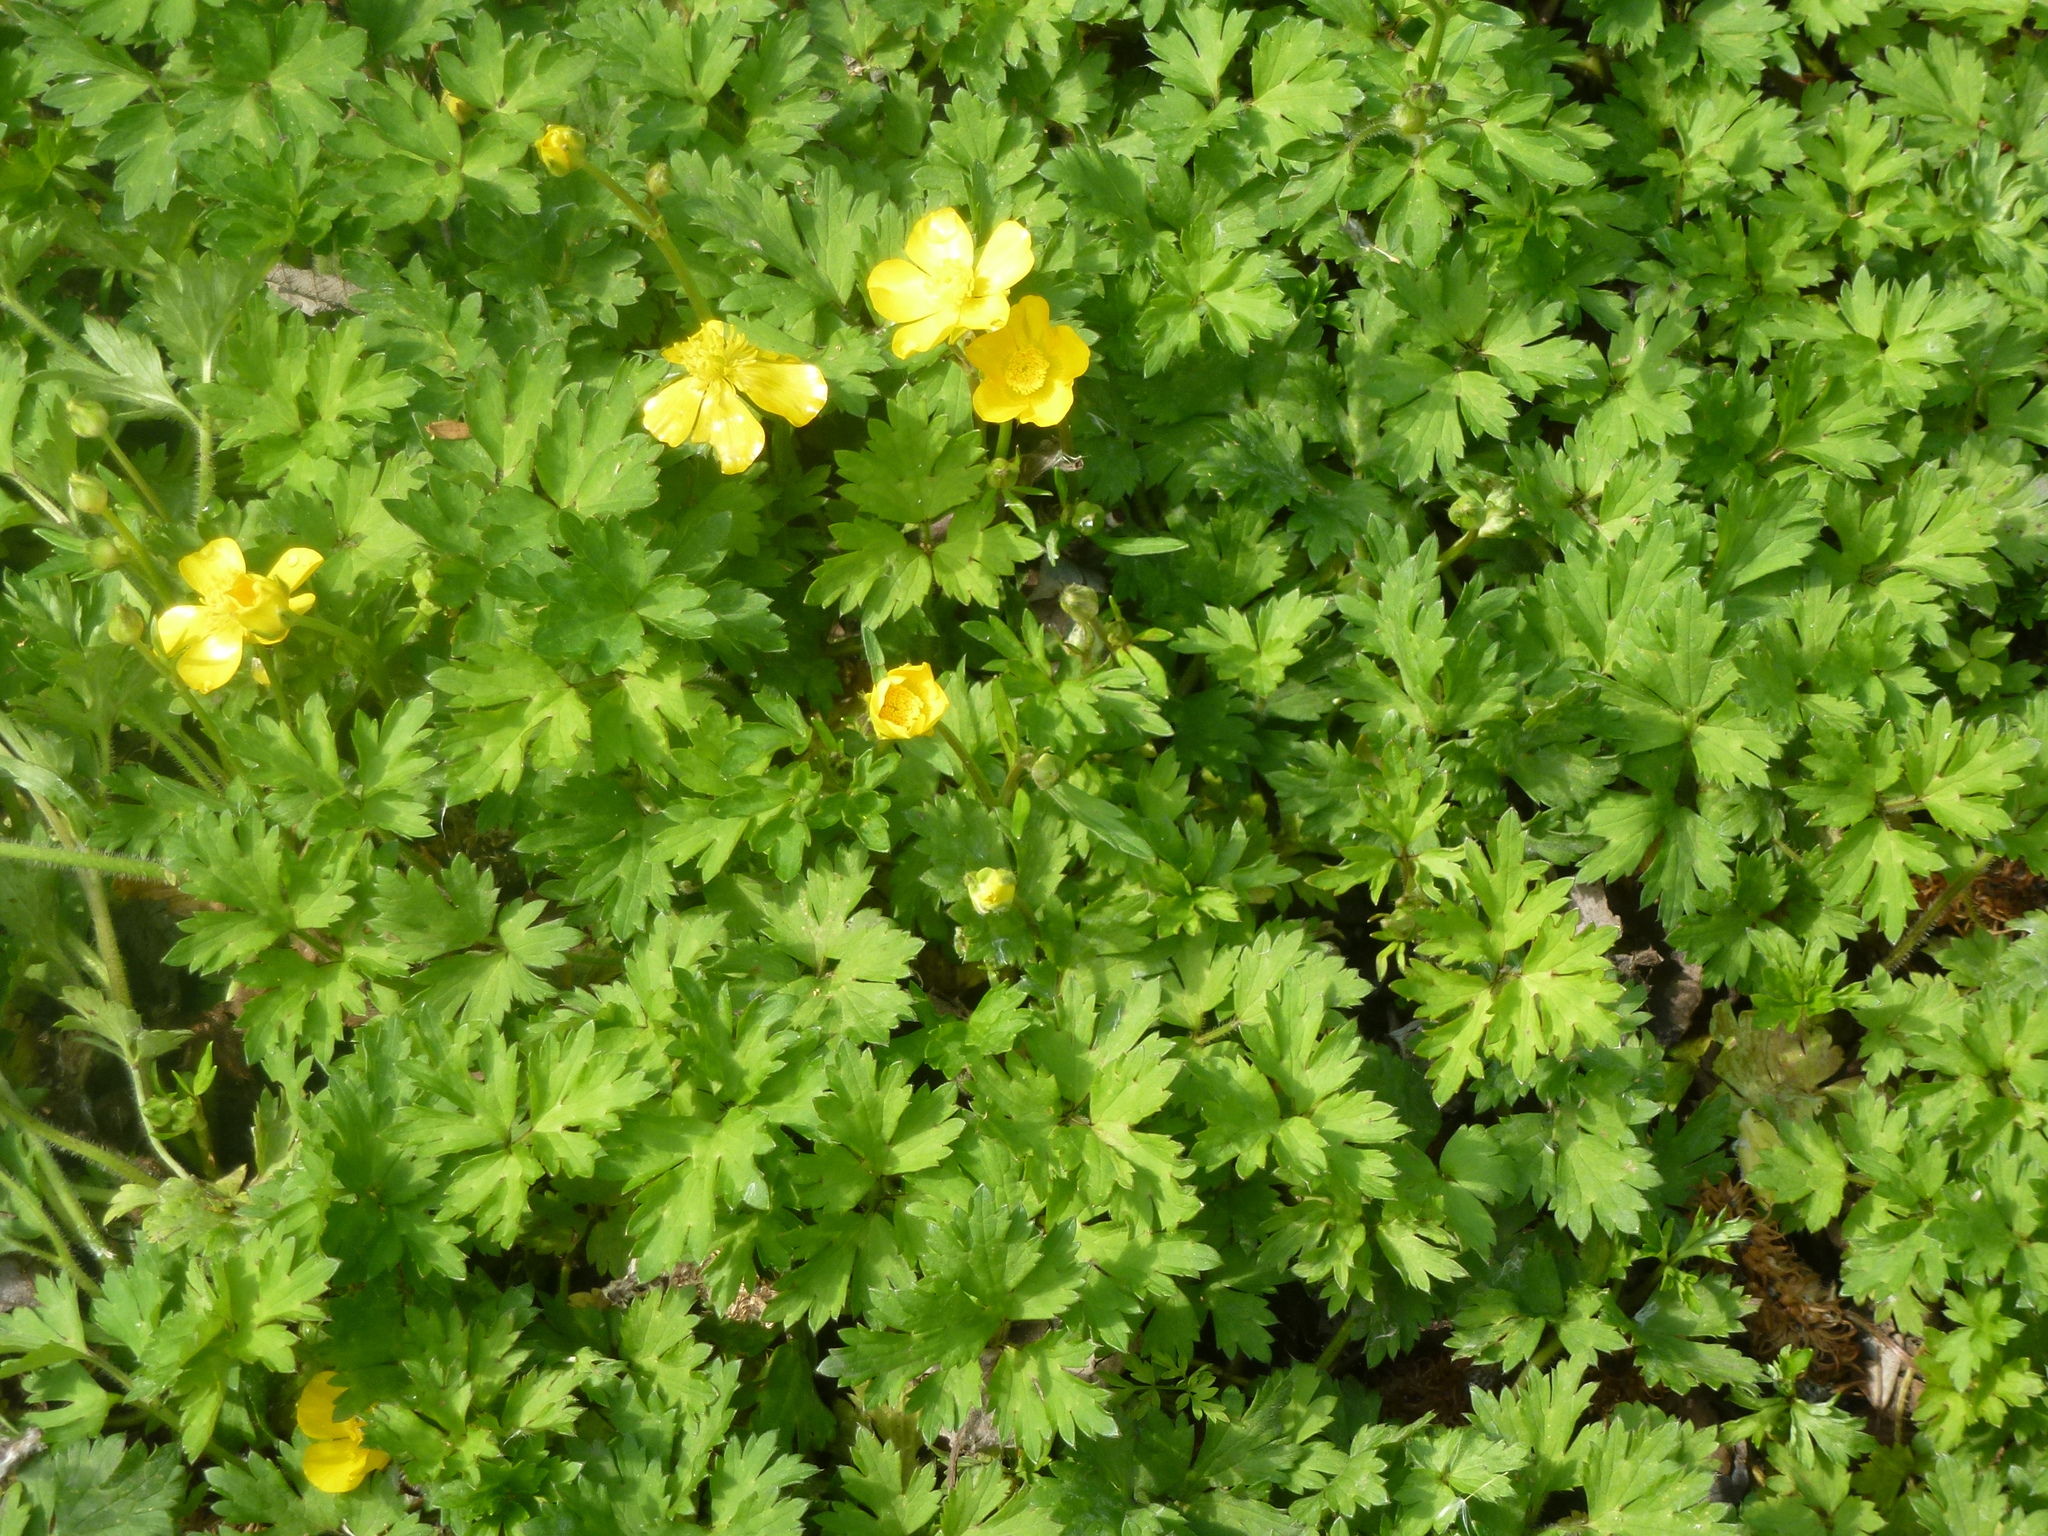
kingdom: Plantae
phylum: Tracheophyta
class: Magnoliopsida
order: Ranunculales
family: Ranunculaceae
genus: Ranunculus
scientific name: Ranunculus repens
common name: Creeping buttercup
